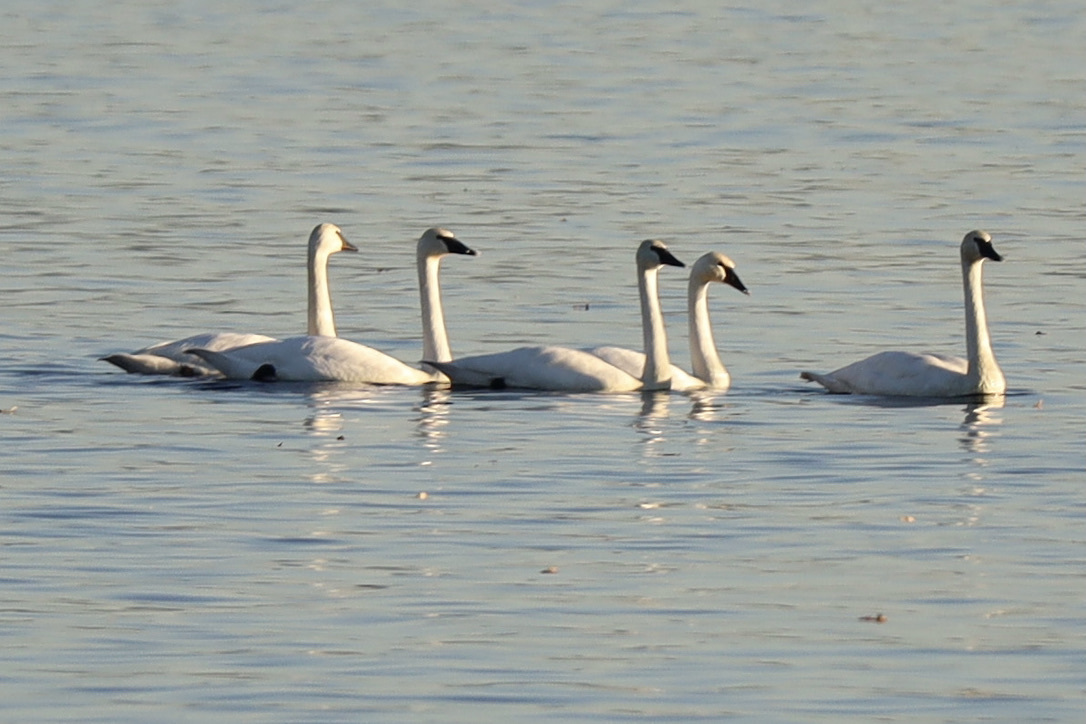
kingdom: Animalia
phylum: Chordata
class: Aves
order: Anseriformes
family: Anatidae
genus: Cygnus
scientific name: Cygnus buccinator
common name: Trumpeter swan
